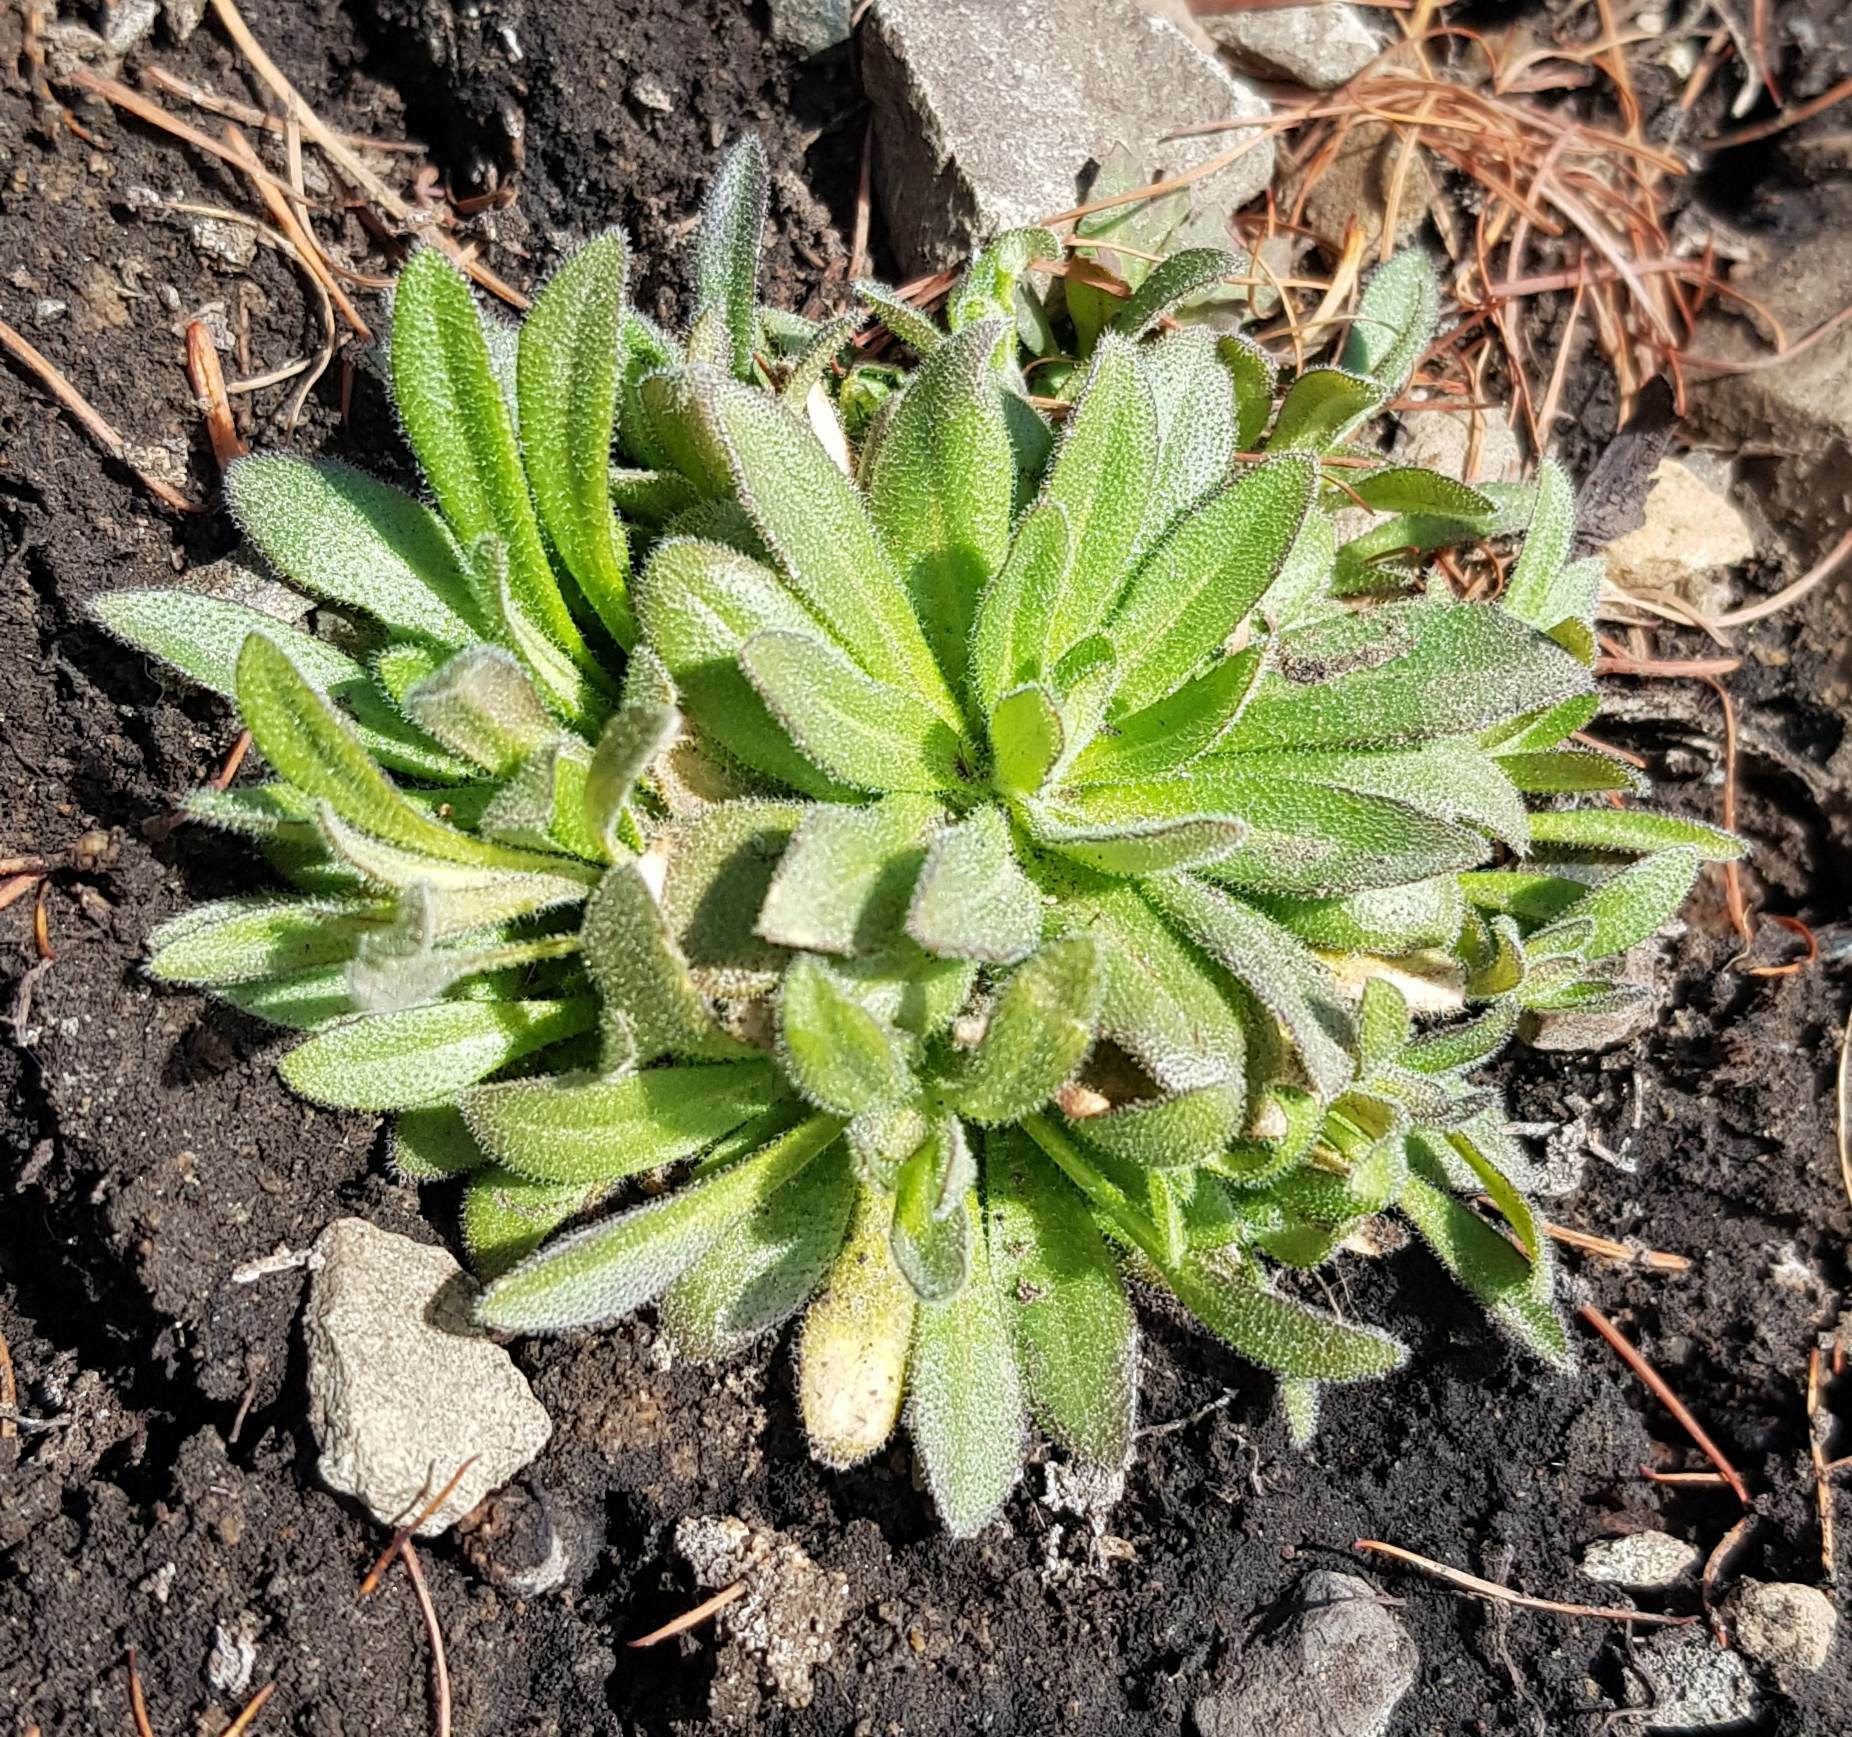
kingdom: Plantae
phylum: Tracheophyta
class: Magnoliopsida
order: Brassicales
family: Brassicaceae
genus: Alyssum
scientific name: Alyssum lenense
